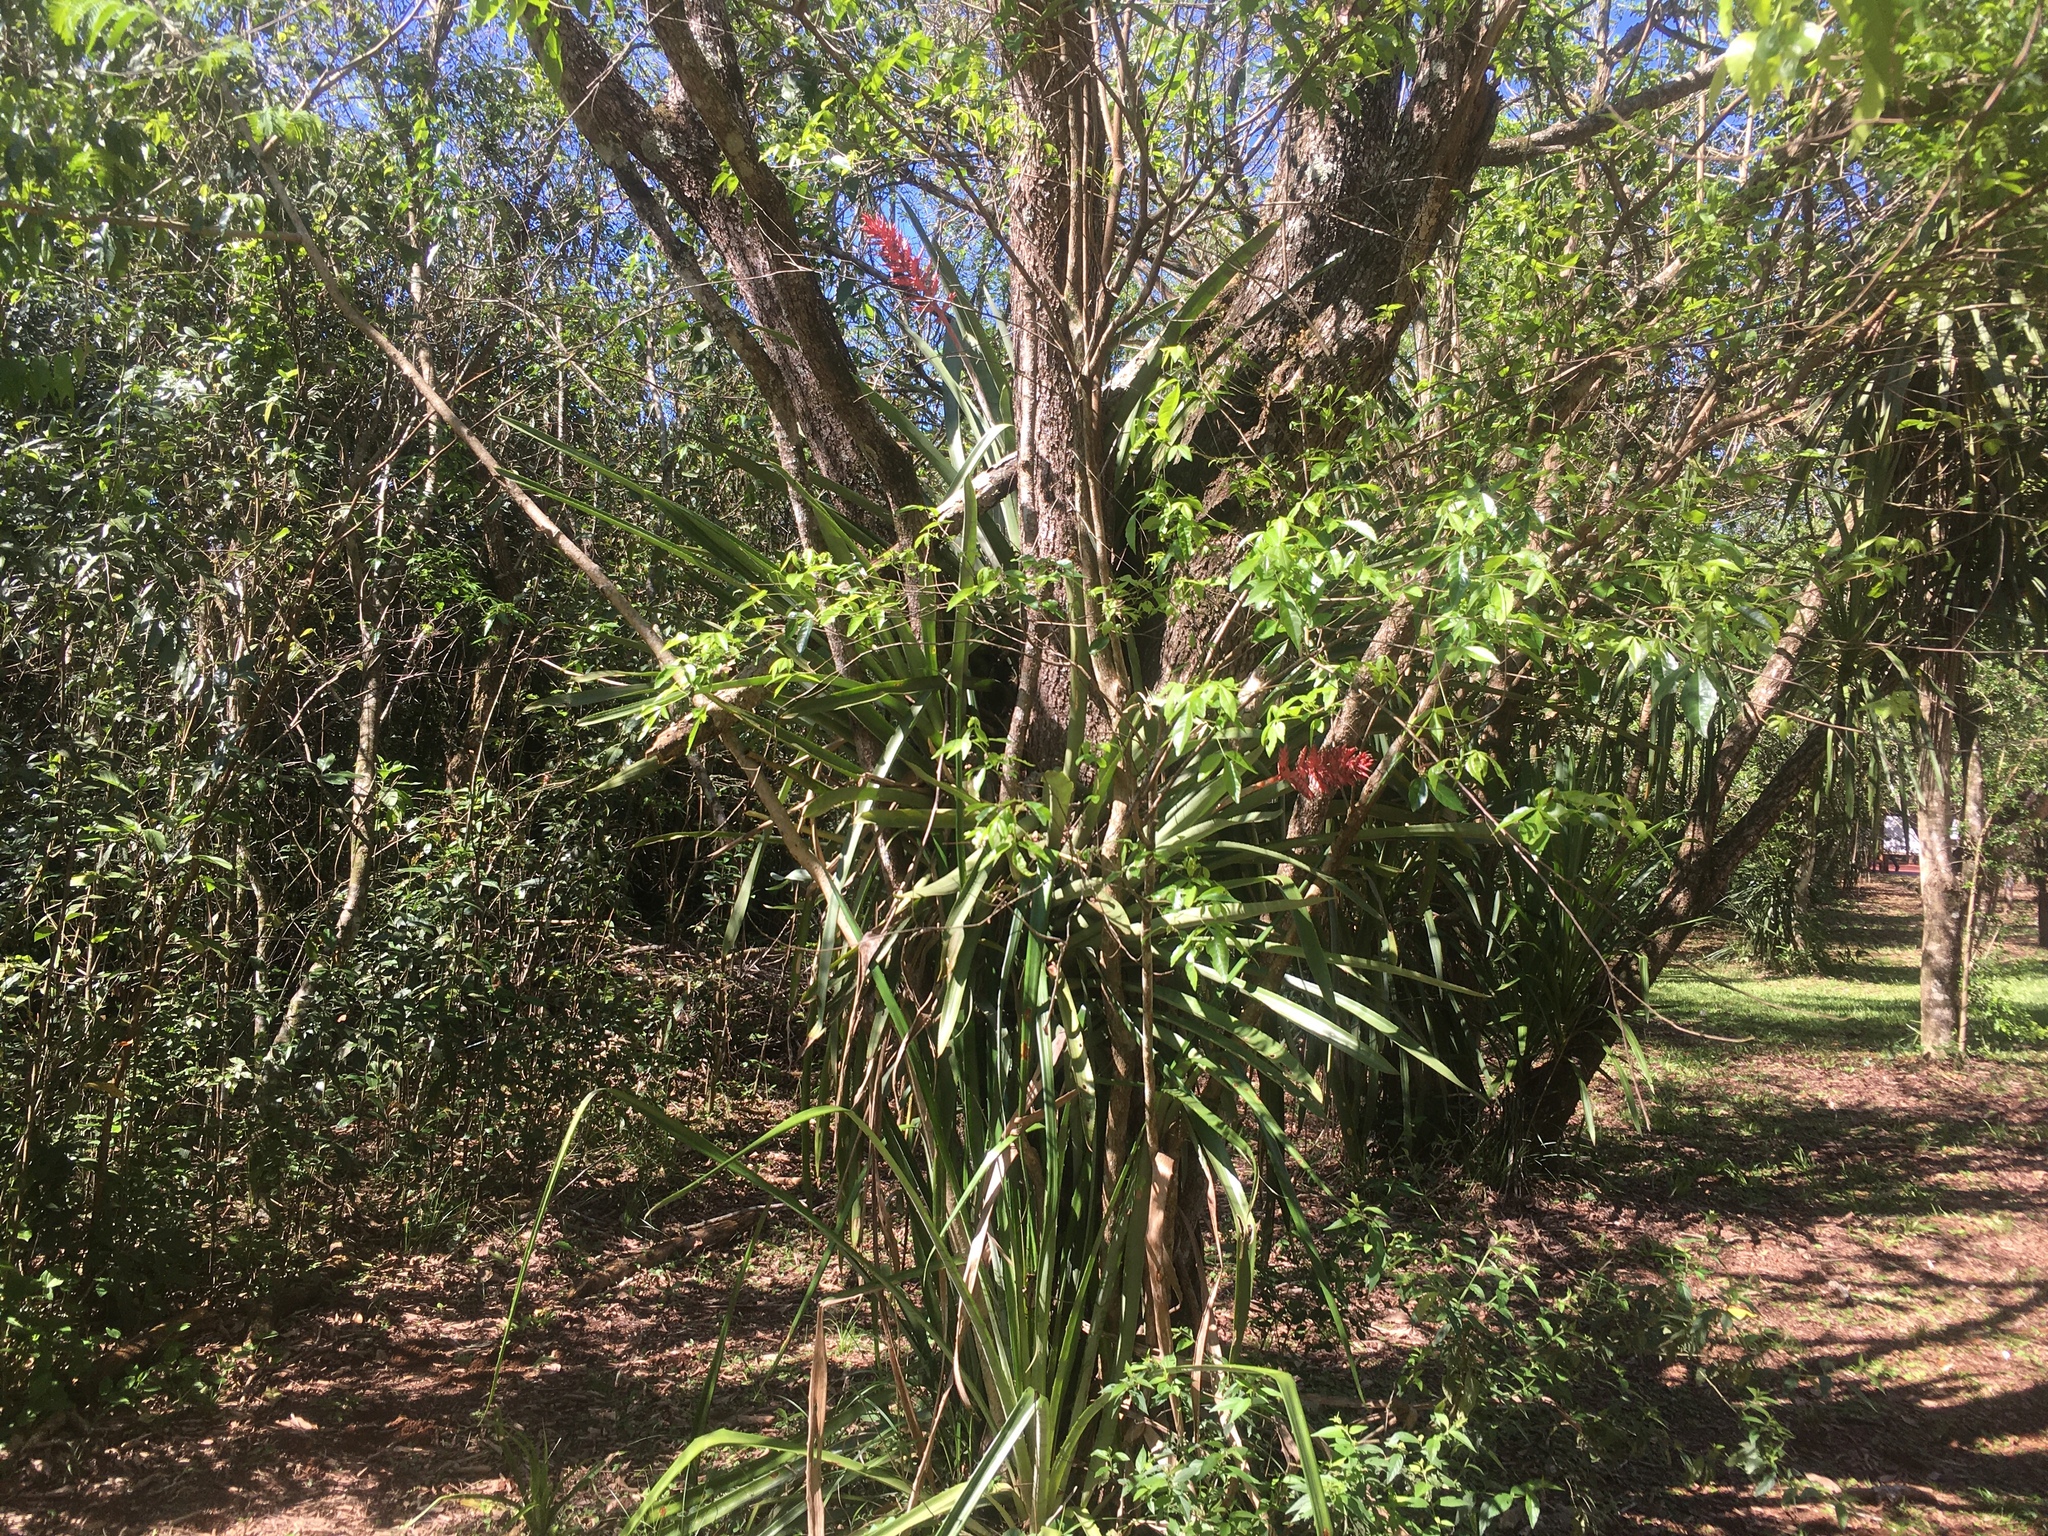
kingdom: Plantae
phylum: Tracheophyta
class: Liliopsida
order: Poales
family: Bromeliaceae
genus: Aechmea
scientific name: Aechmea distichantha
